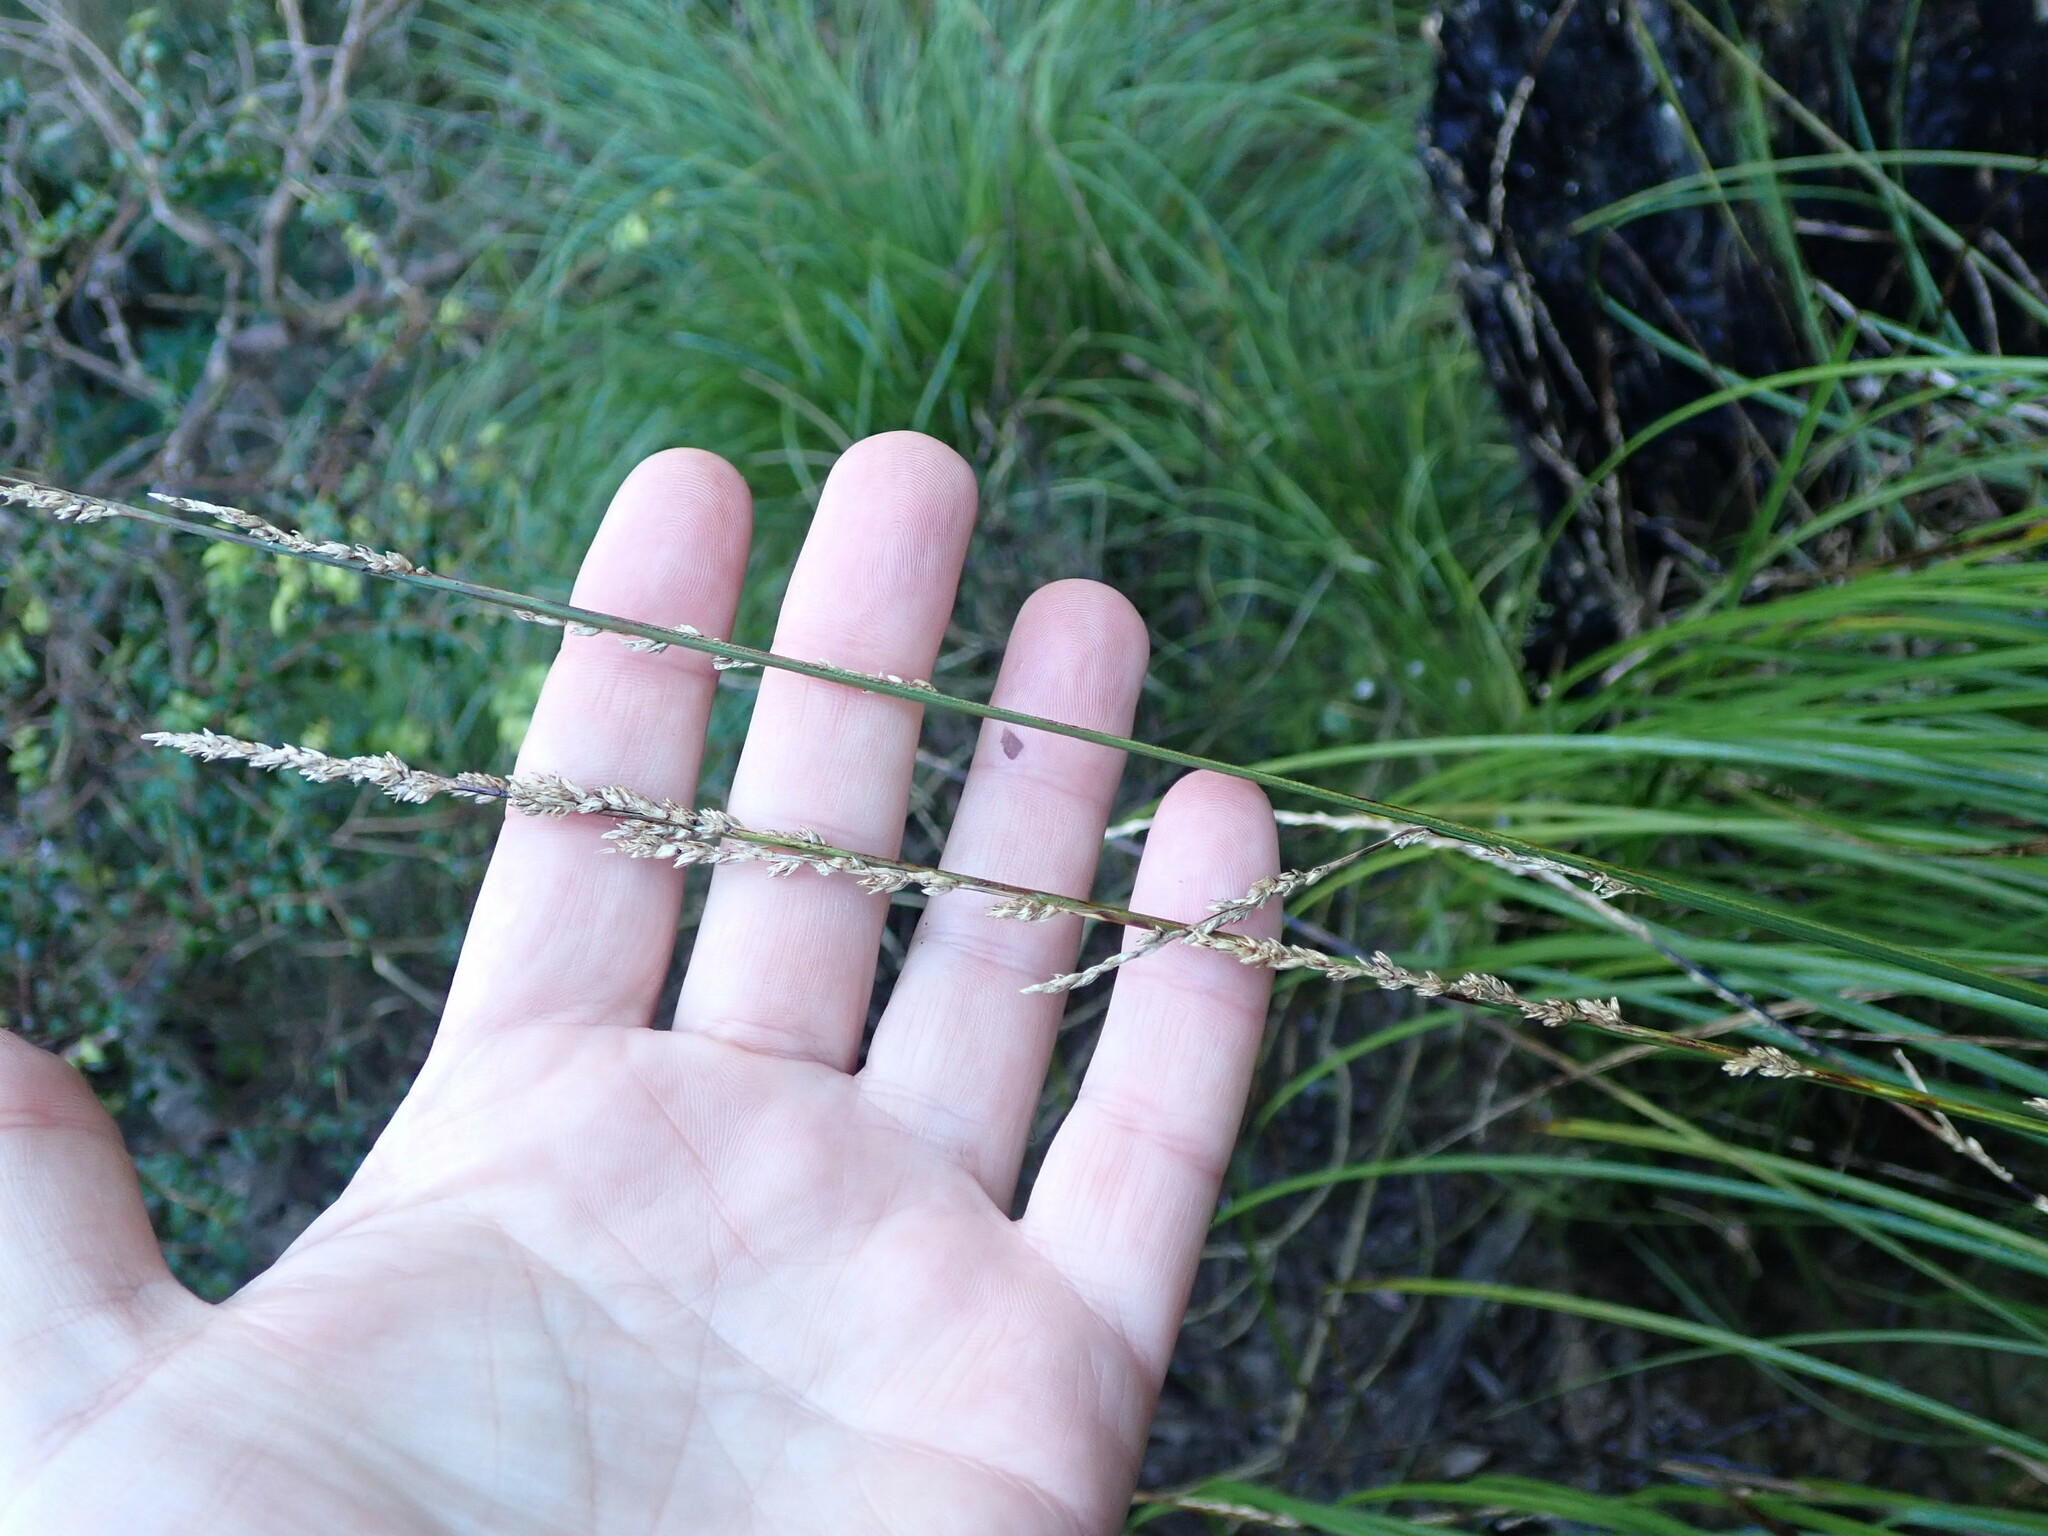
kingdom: Plantae
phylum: Tracheophyta
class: Liliopsida
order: Poales
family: Cyperaceae
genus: Carex
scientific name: Carex virgata
